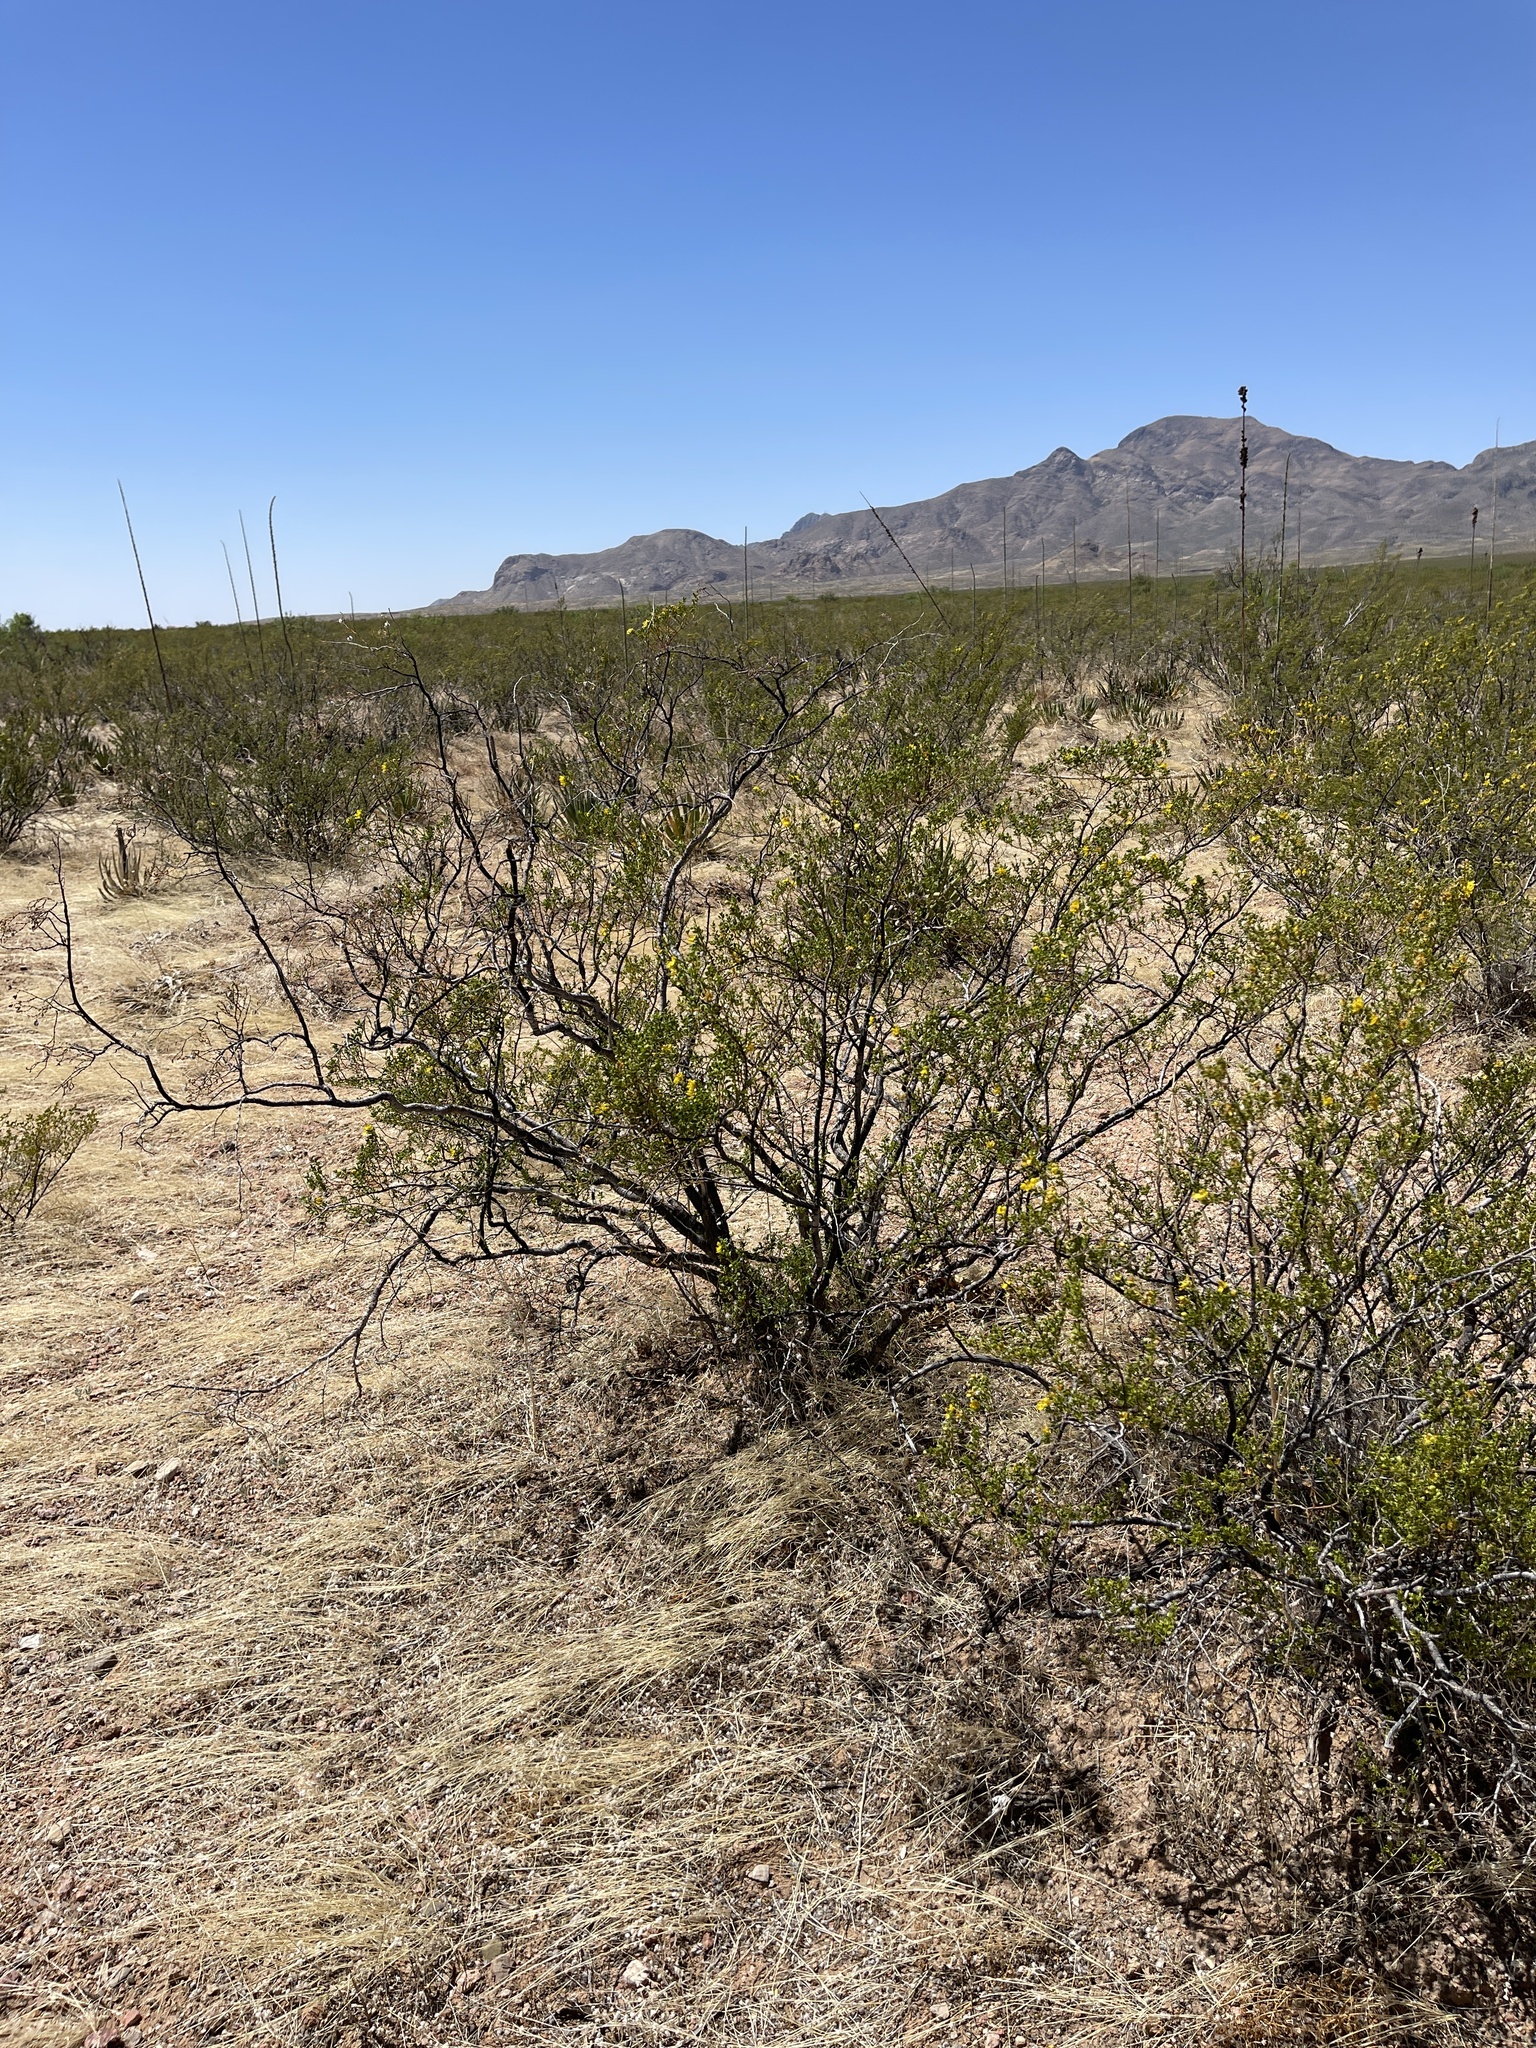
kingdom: Plantae
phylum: Tracheophyta
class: Magnoliopsida
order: Zygophyllales
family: Zygophyllaceae
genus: Larrea
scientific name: Larrea tridentata
